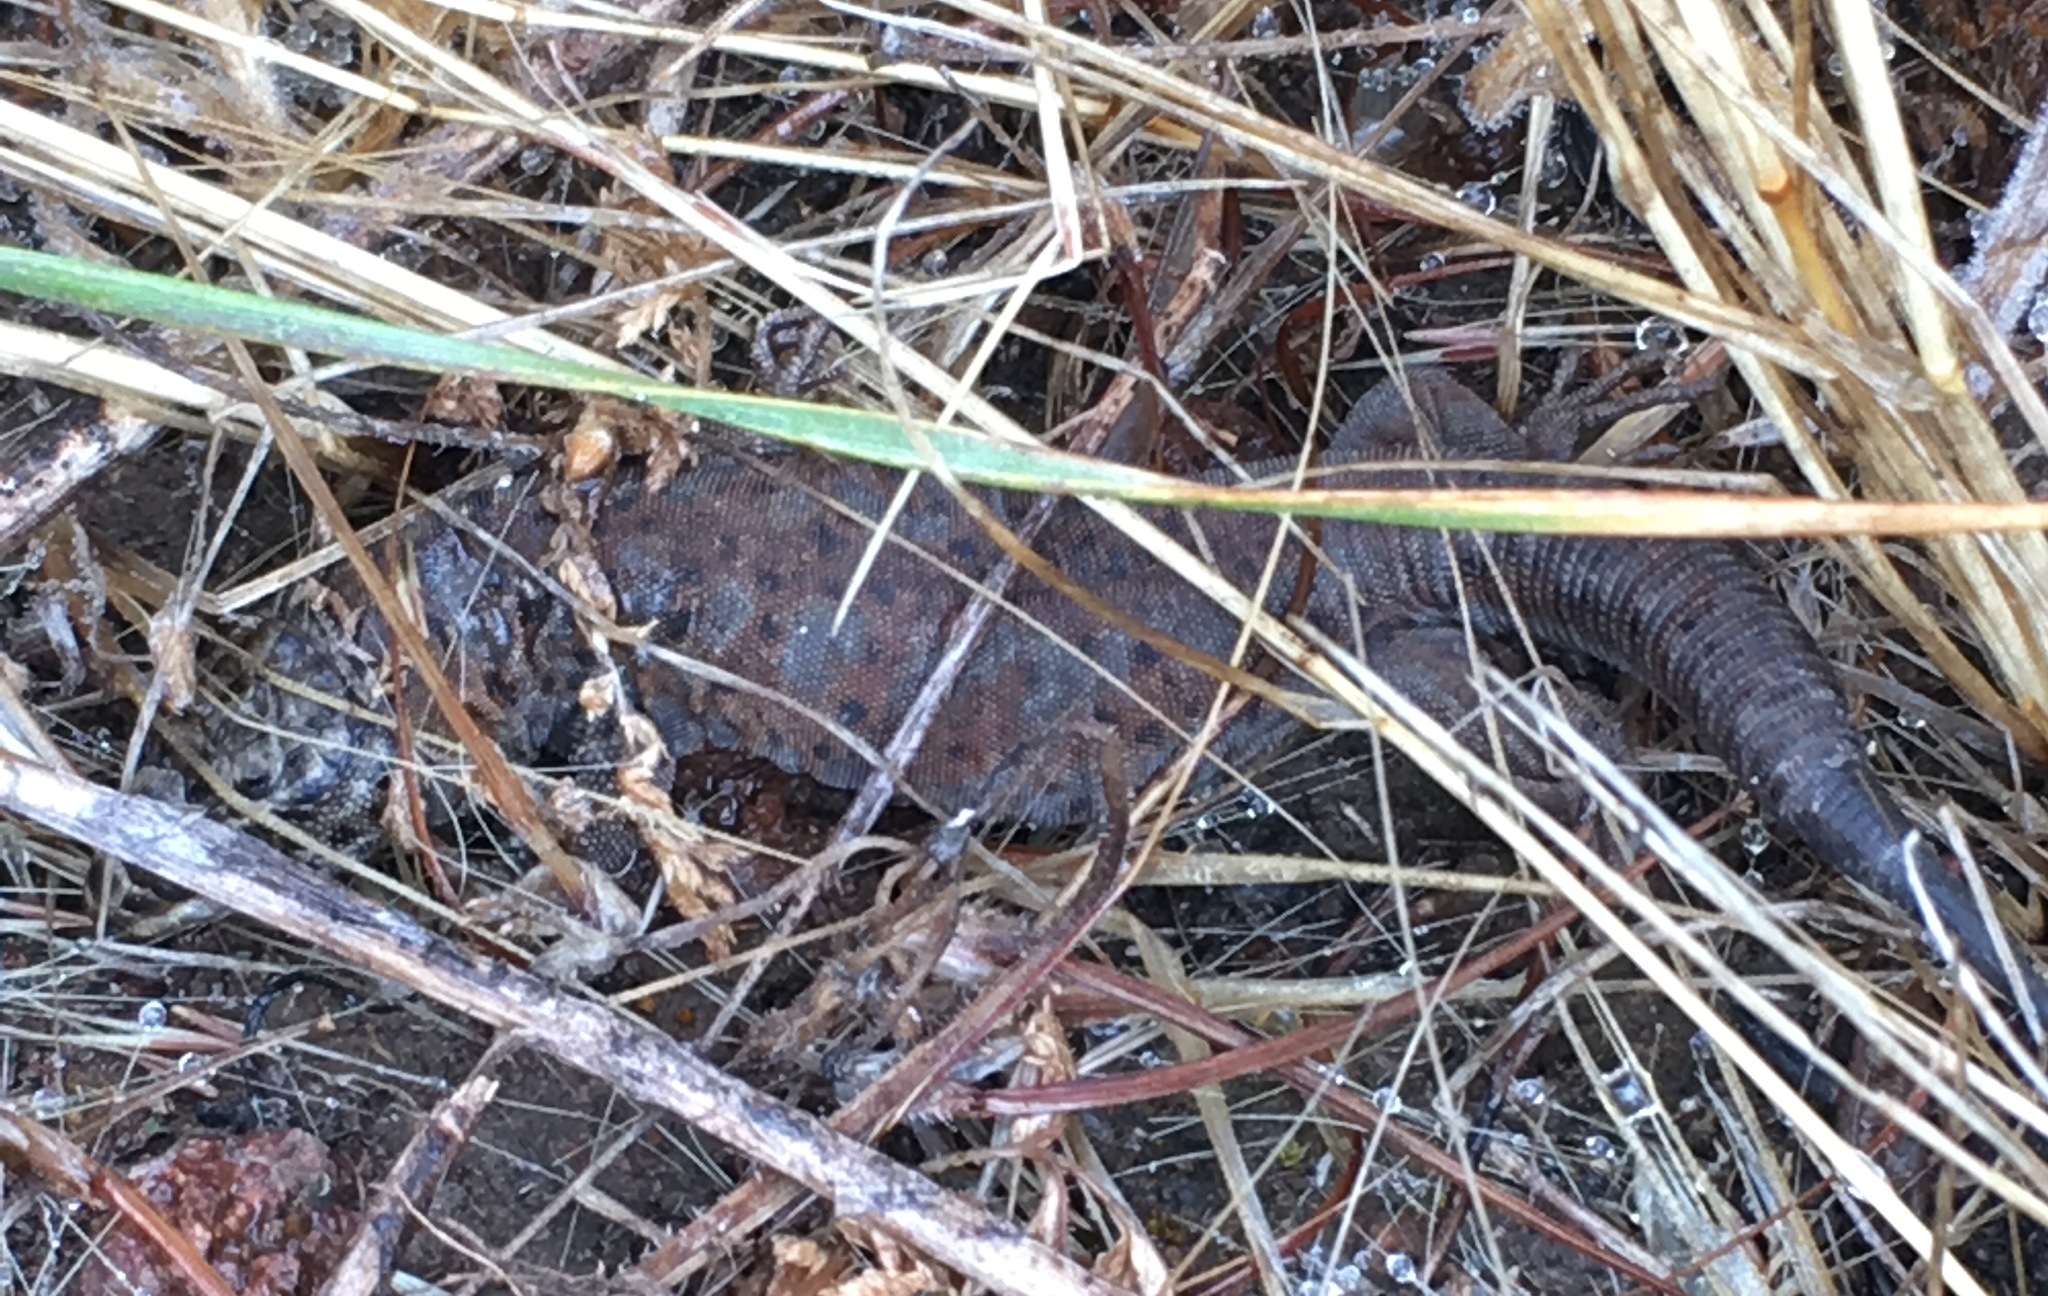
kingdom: Animalia
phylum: Chordata
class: Squamata
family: Xantusiidae
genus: Xantusia
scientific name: Xantusia riversiana
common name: Island night lizard
